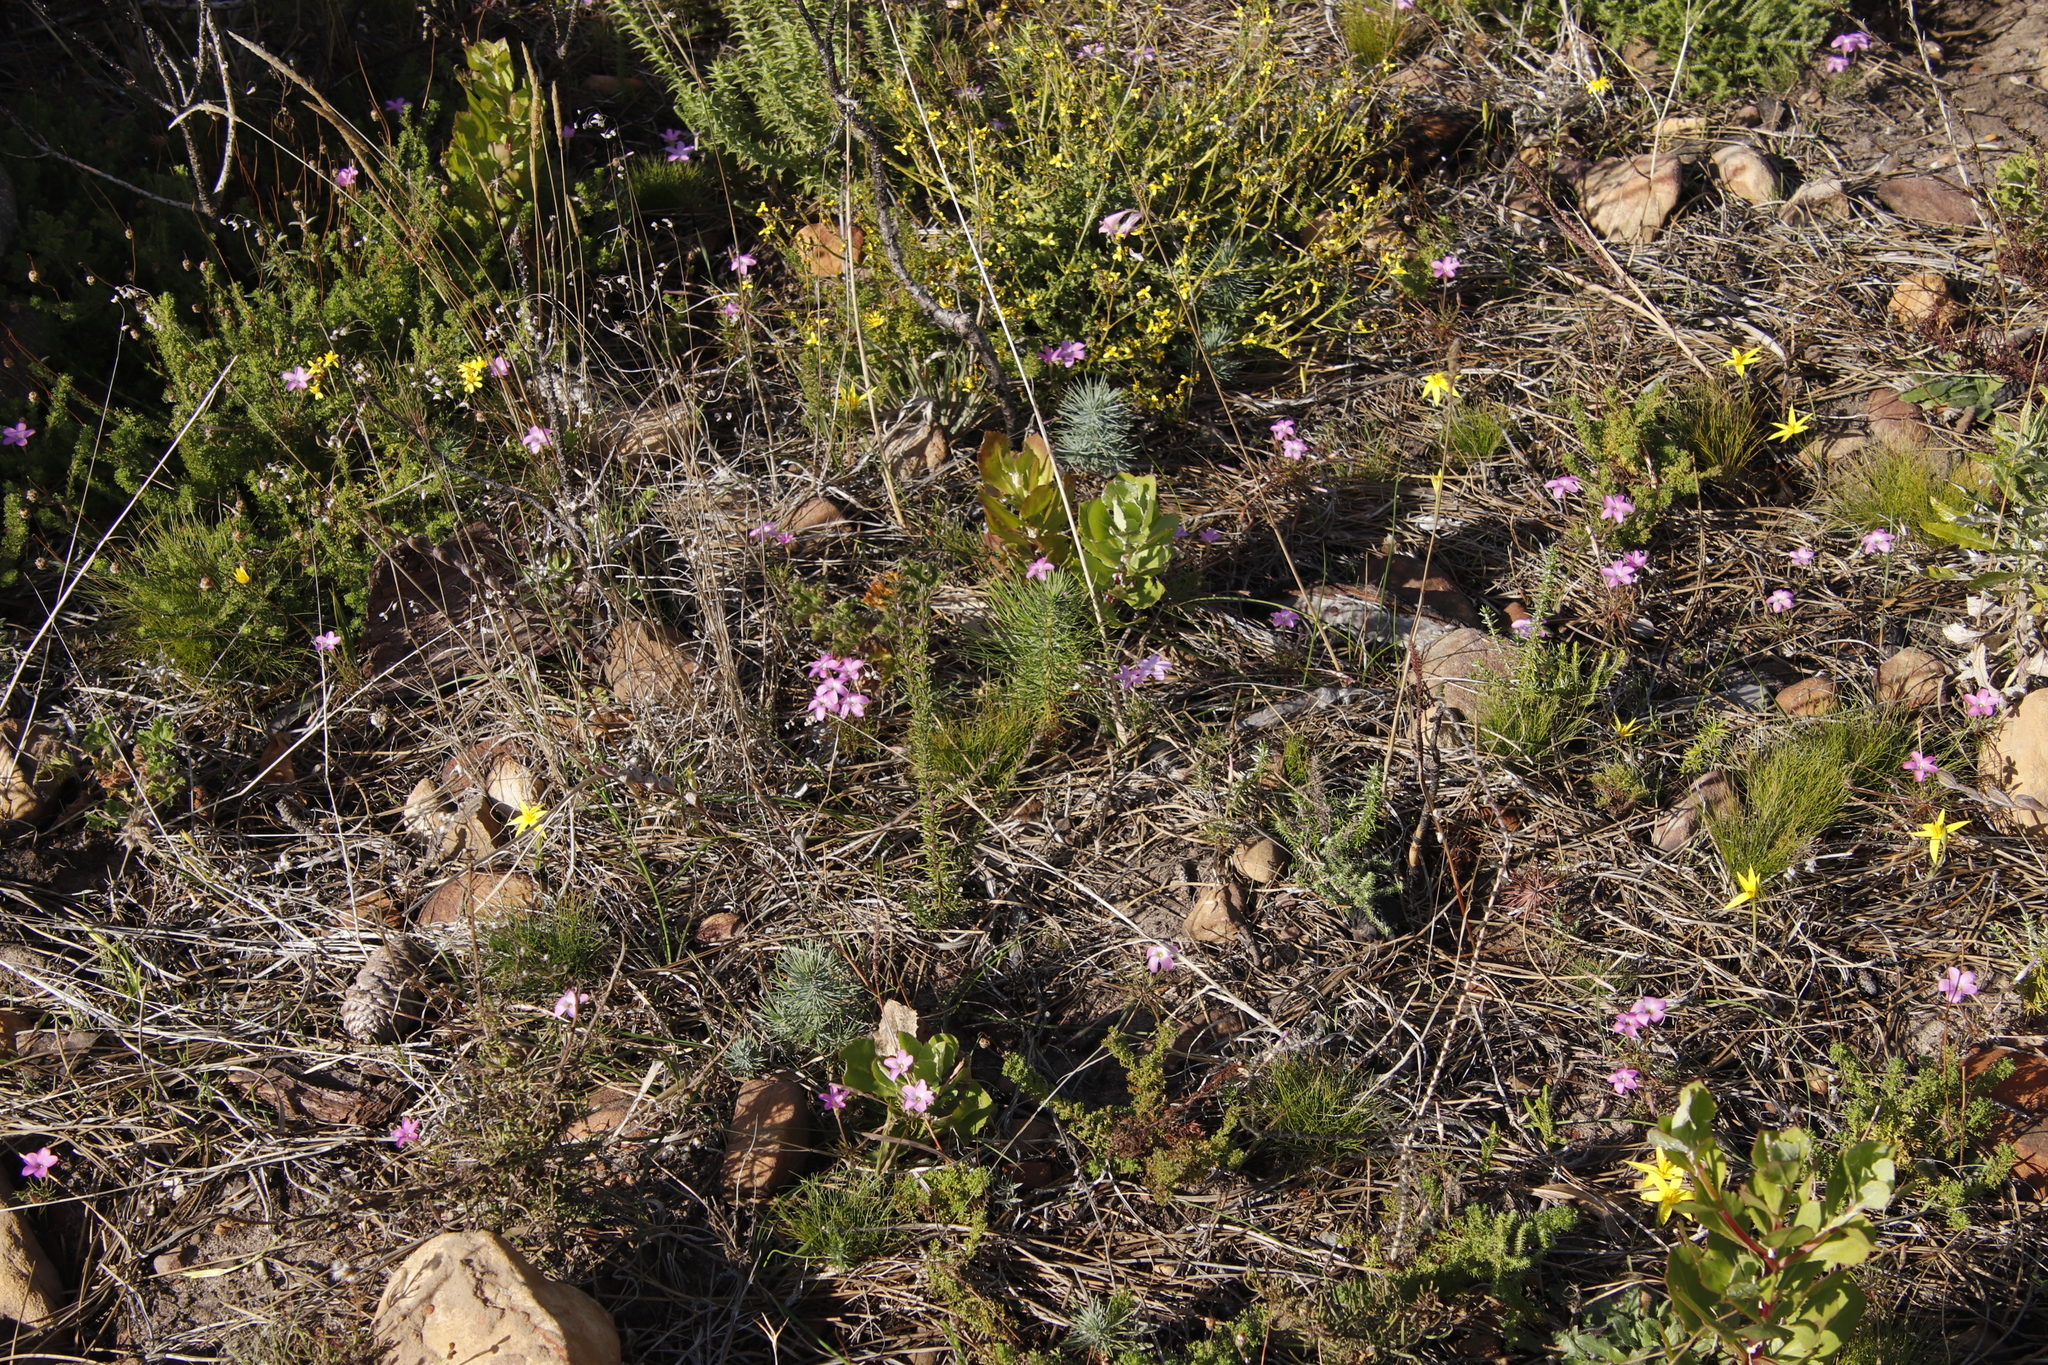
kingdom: Plantae
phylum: Tracheophyta
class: Magnoliopsida
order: Oxalidales
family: Oxalidaceae
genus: Oxalis
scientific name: Oxalis polyphylla
